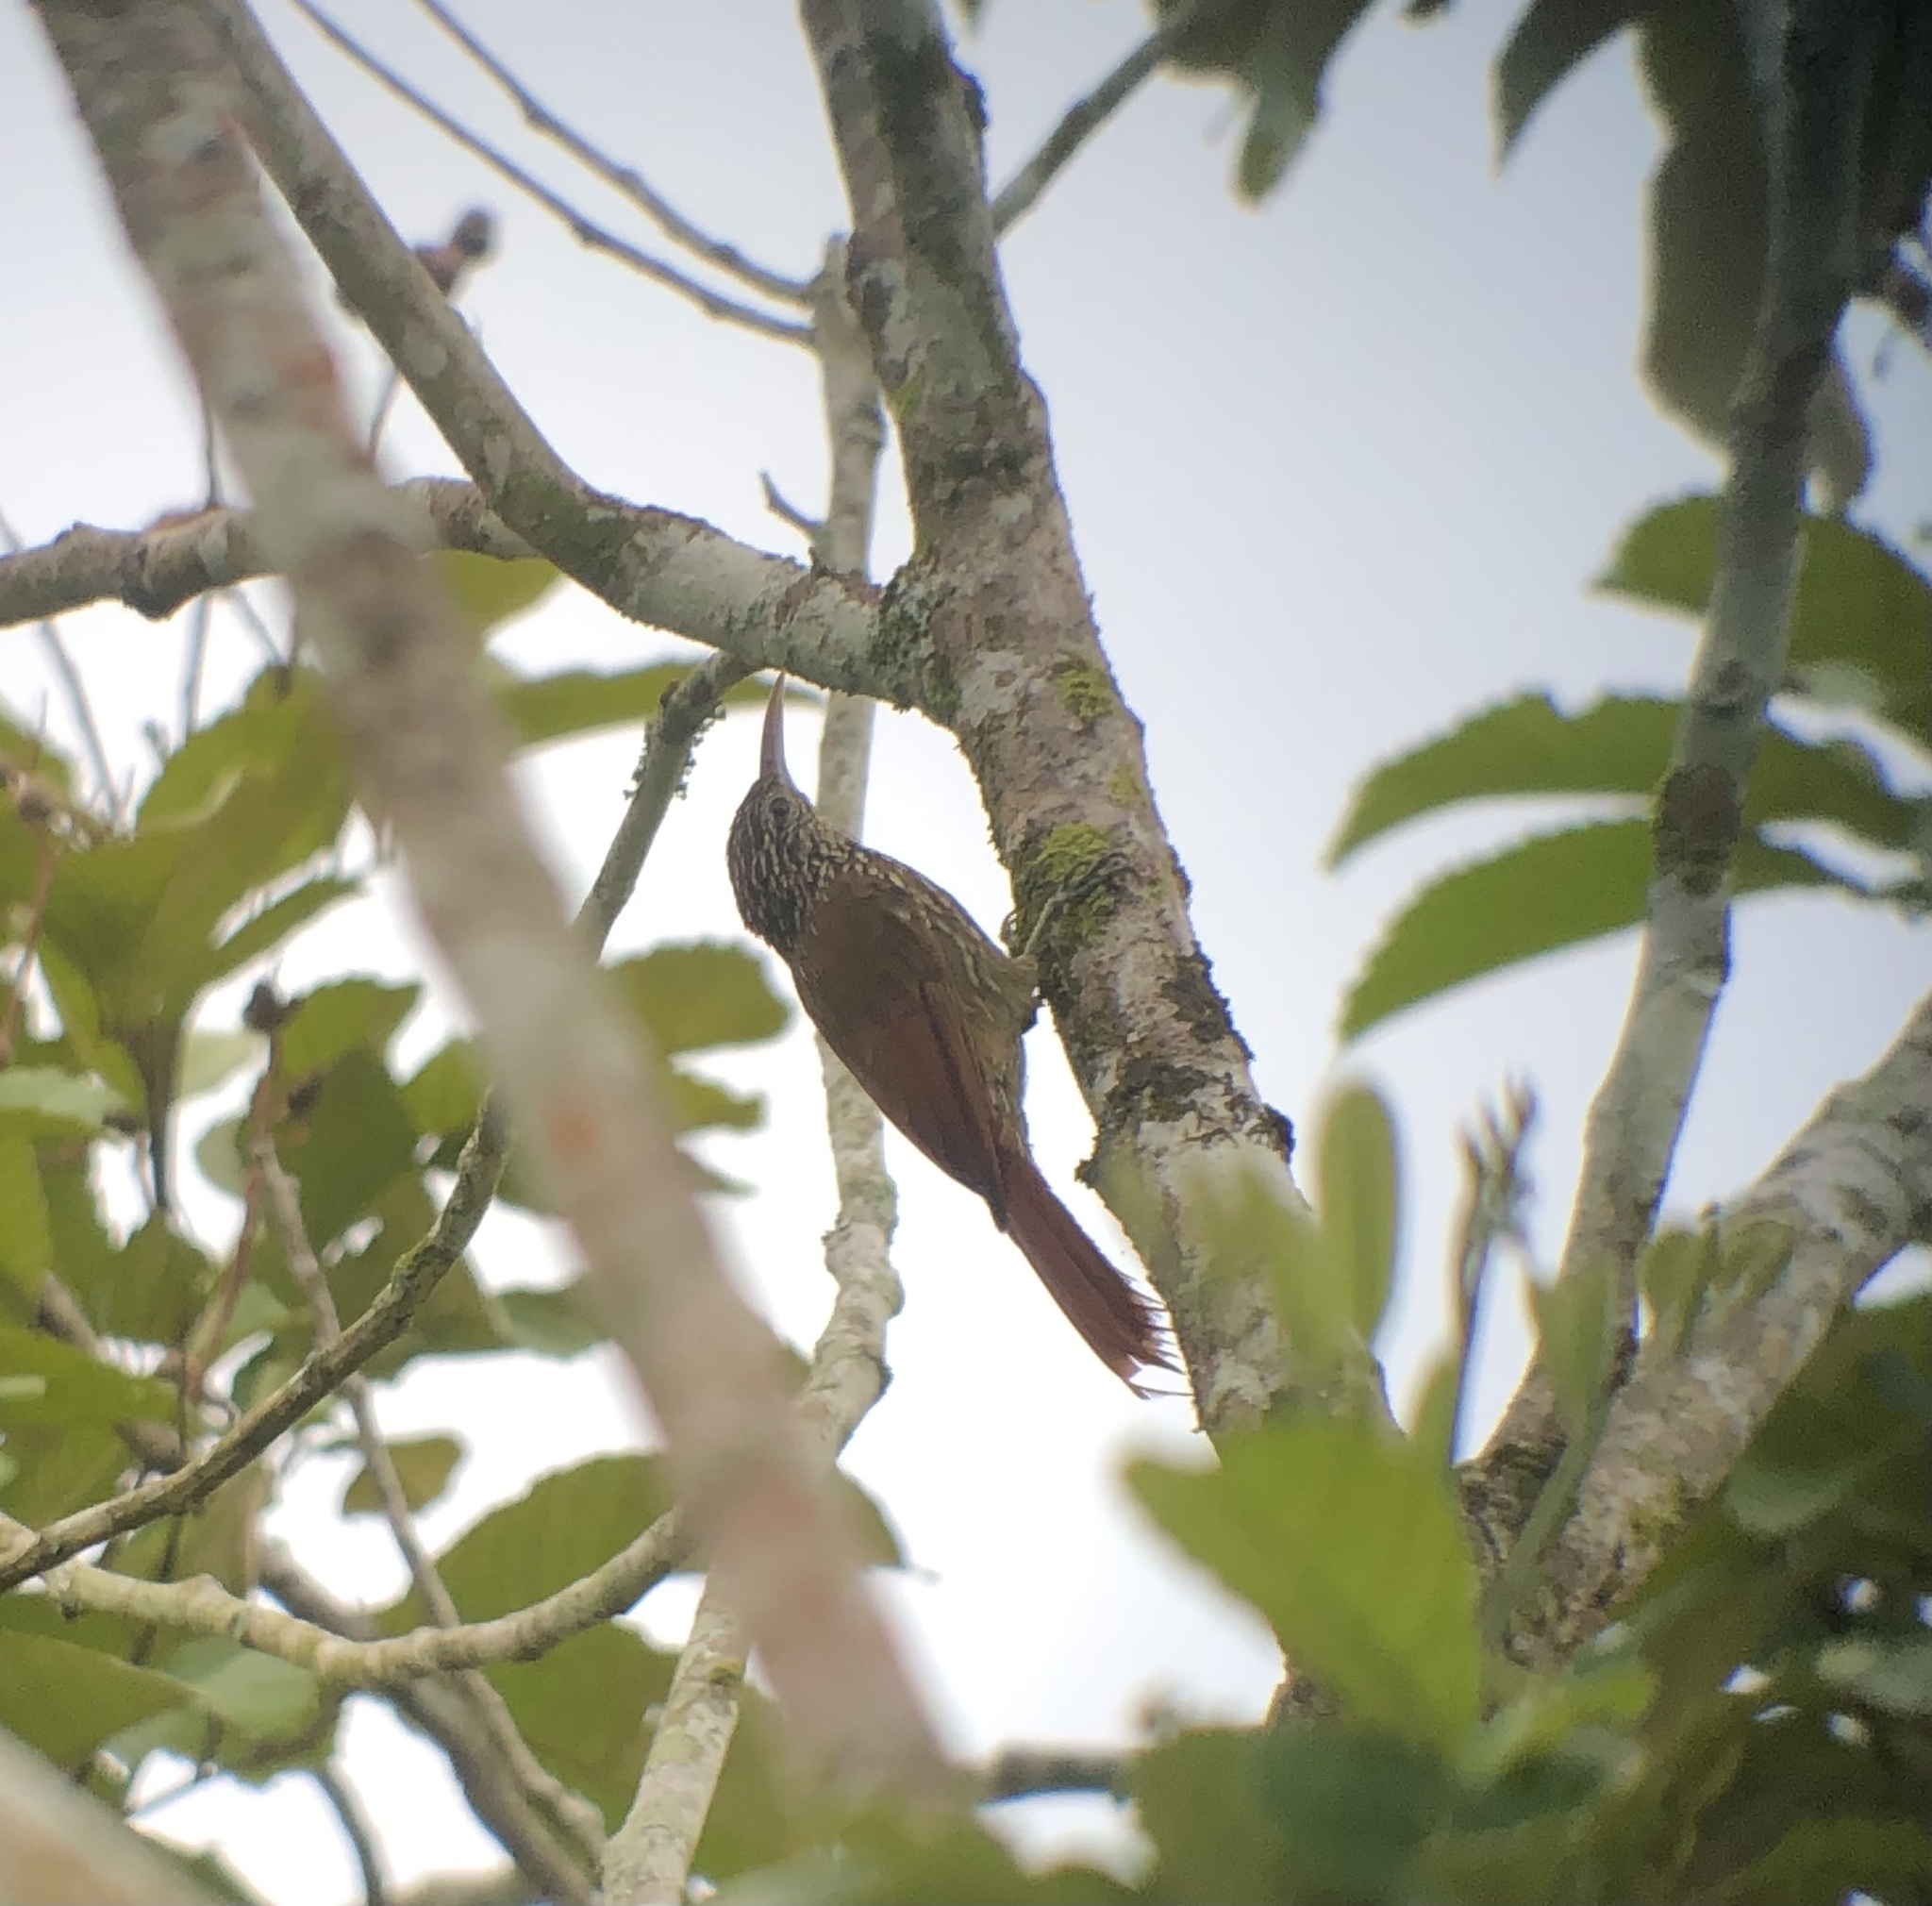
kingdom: Animalia
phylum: Chordata
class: Aves
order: Passeriformes
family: Furnariidae
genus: Lepidocolaptes
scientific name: Lepidocolaptes souleyetii
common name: Streak-headed woodcreeper
